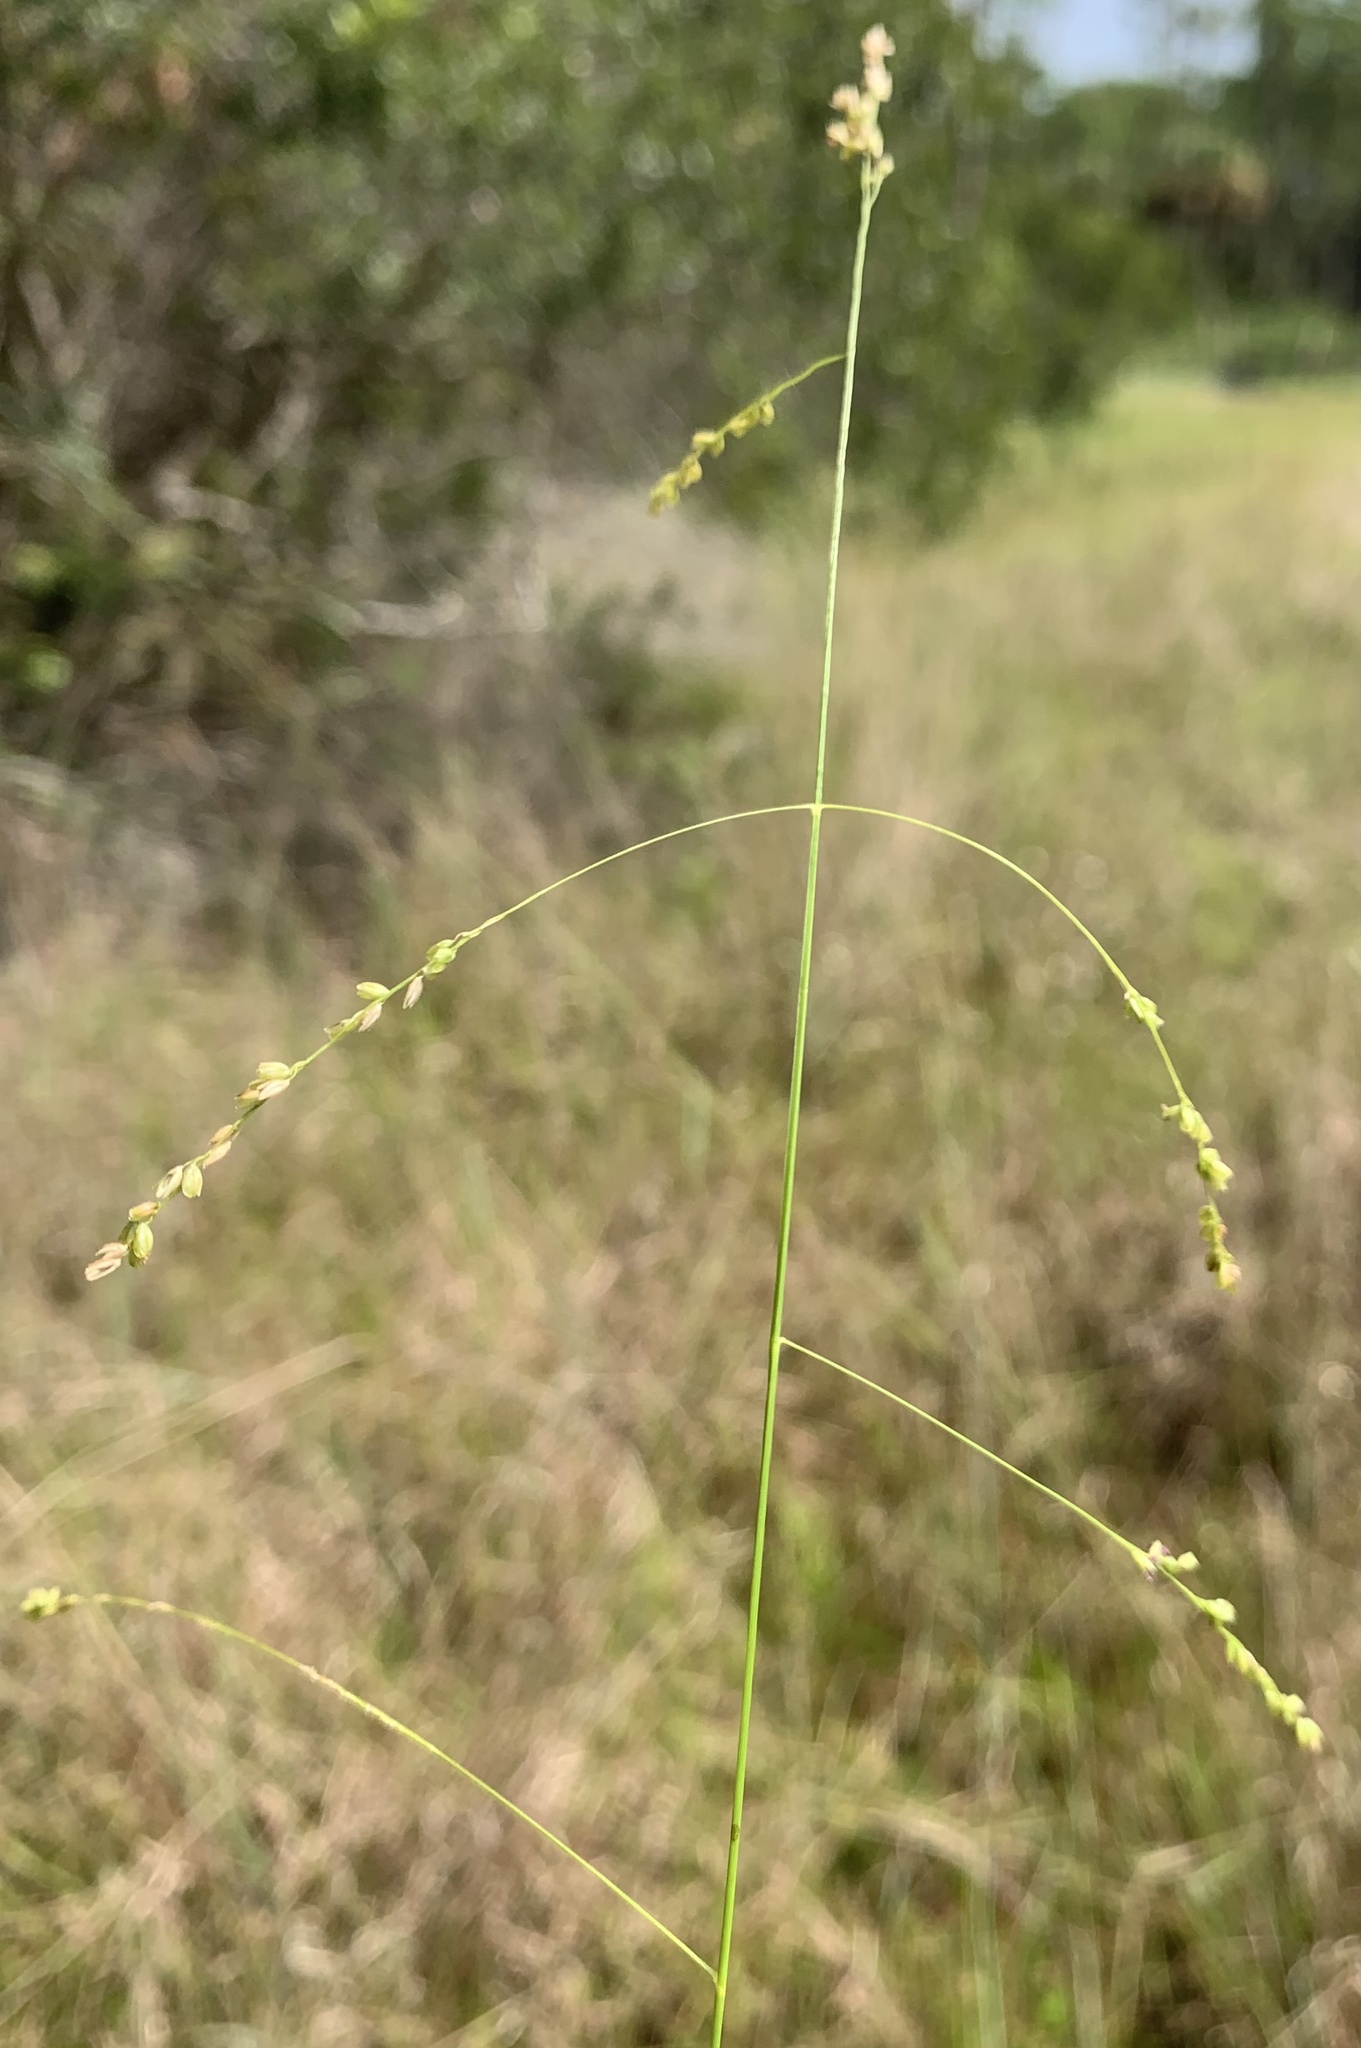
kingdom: Plantae
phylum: Tracheophyta
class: Liliopsida
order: Poales
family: Poaceae
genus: Steinchisma
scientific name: Steinchisma hians
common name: Gaping panic grass
